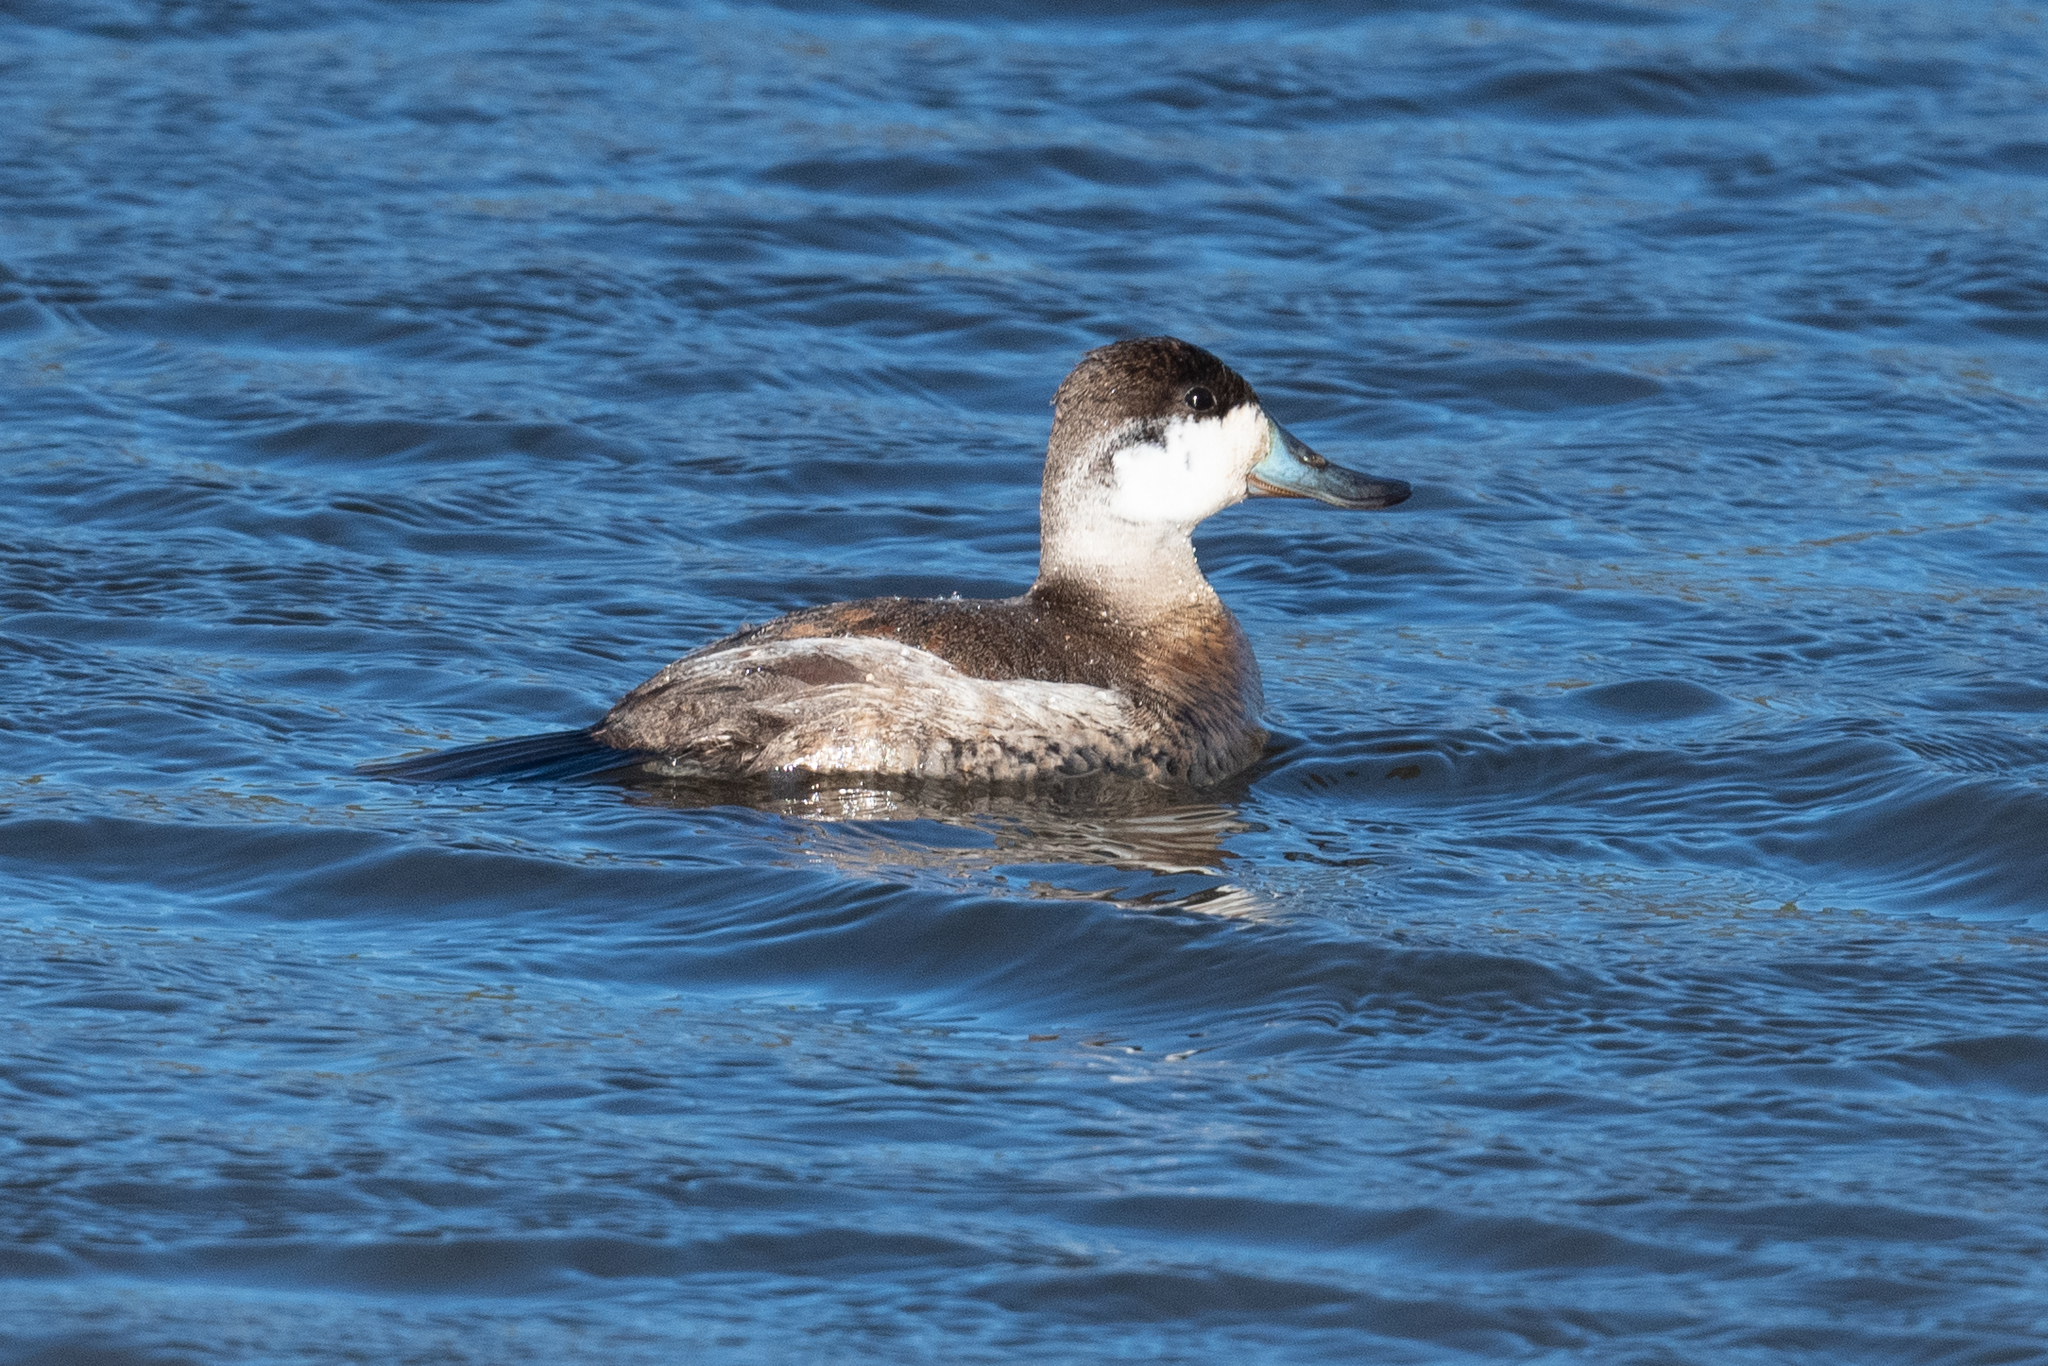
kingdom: Animalia
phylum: Chordata
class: Aves
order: Anseriformes
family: Anatidae
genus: Oxyura
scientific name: Oxyura jamaicensis
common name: Ruddy duck
